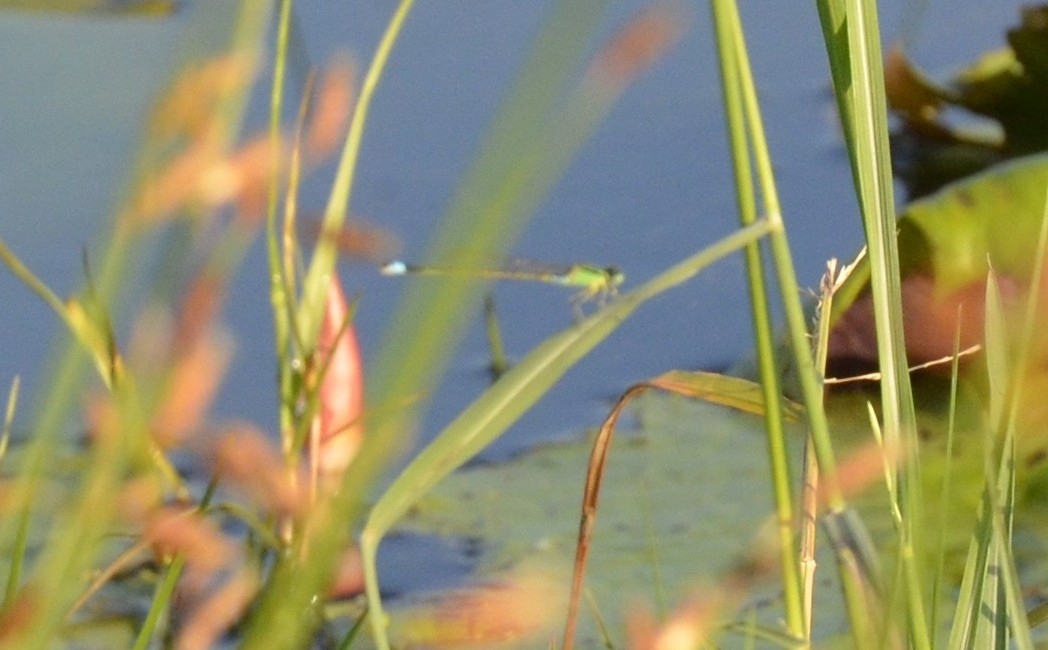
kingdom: Animalia
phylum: Arthropoda
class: Insecta
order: Odonata
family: Coenagrionidae
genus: Ischnura
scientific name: Ischnura senegalensis
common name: Tropical bluetail
